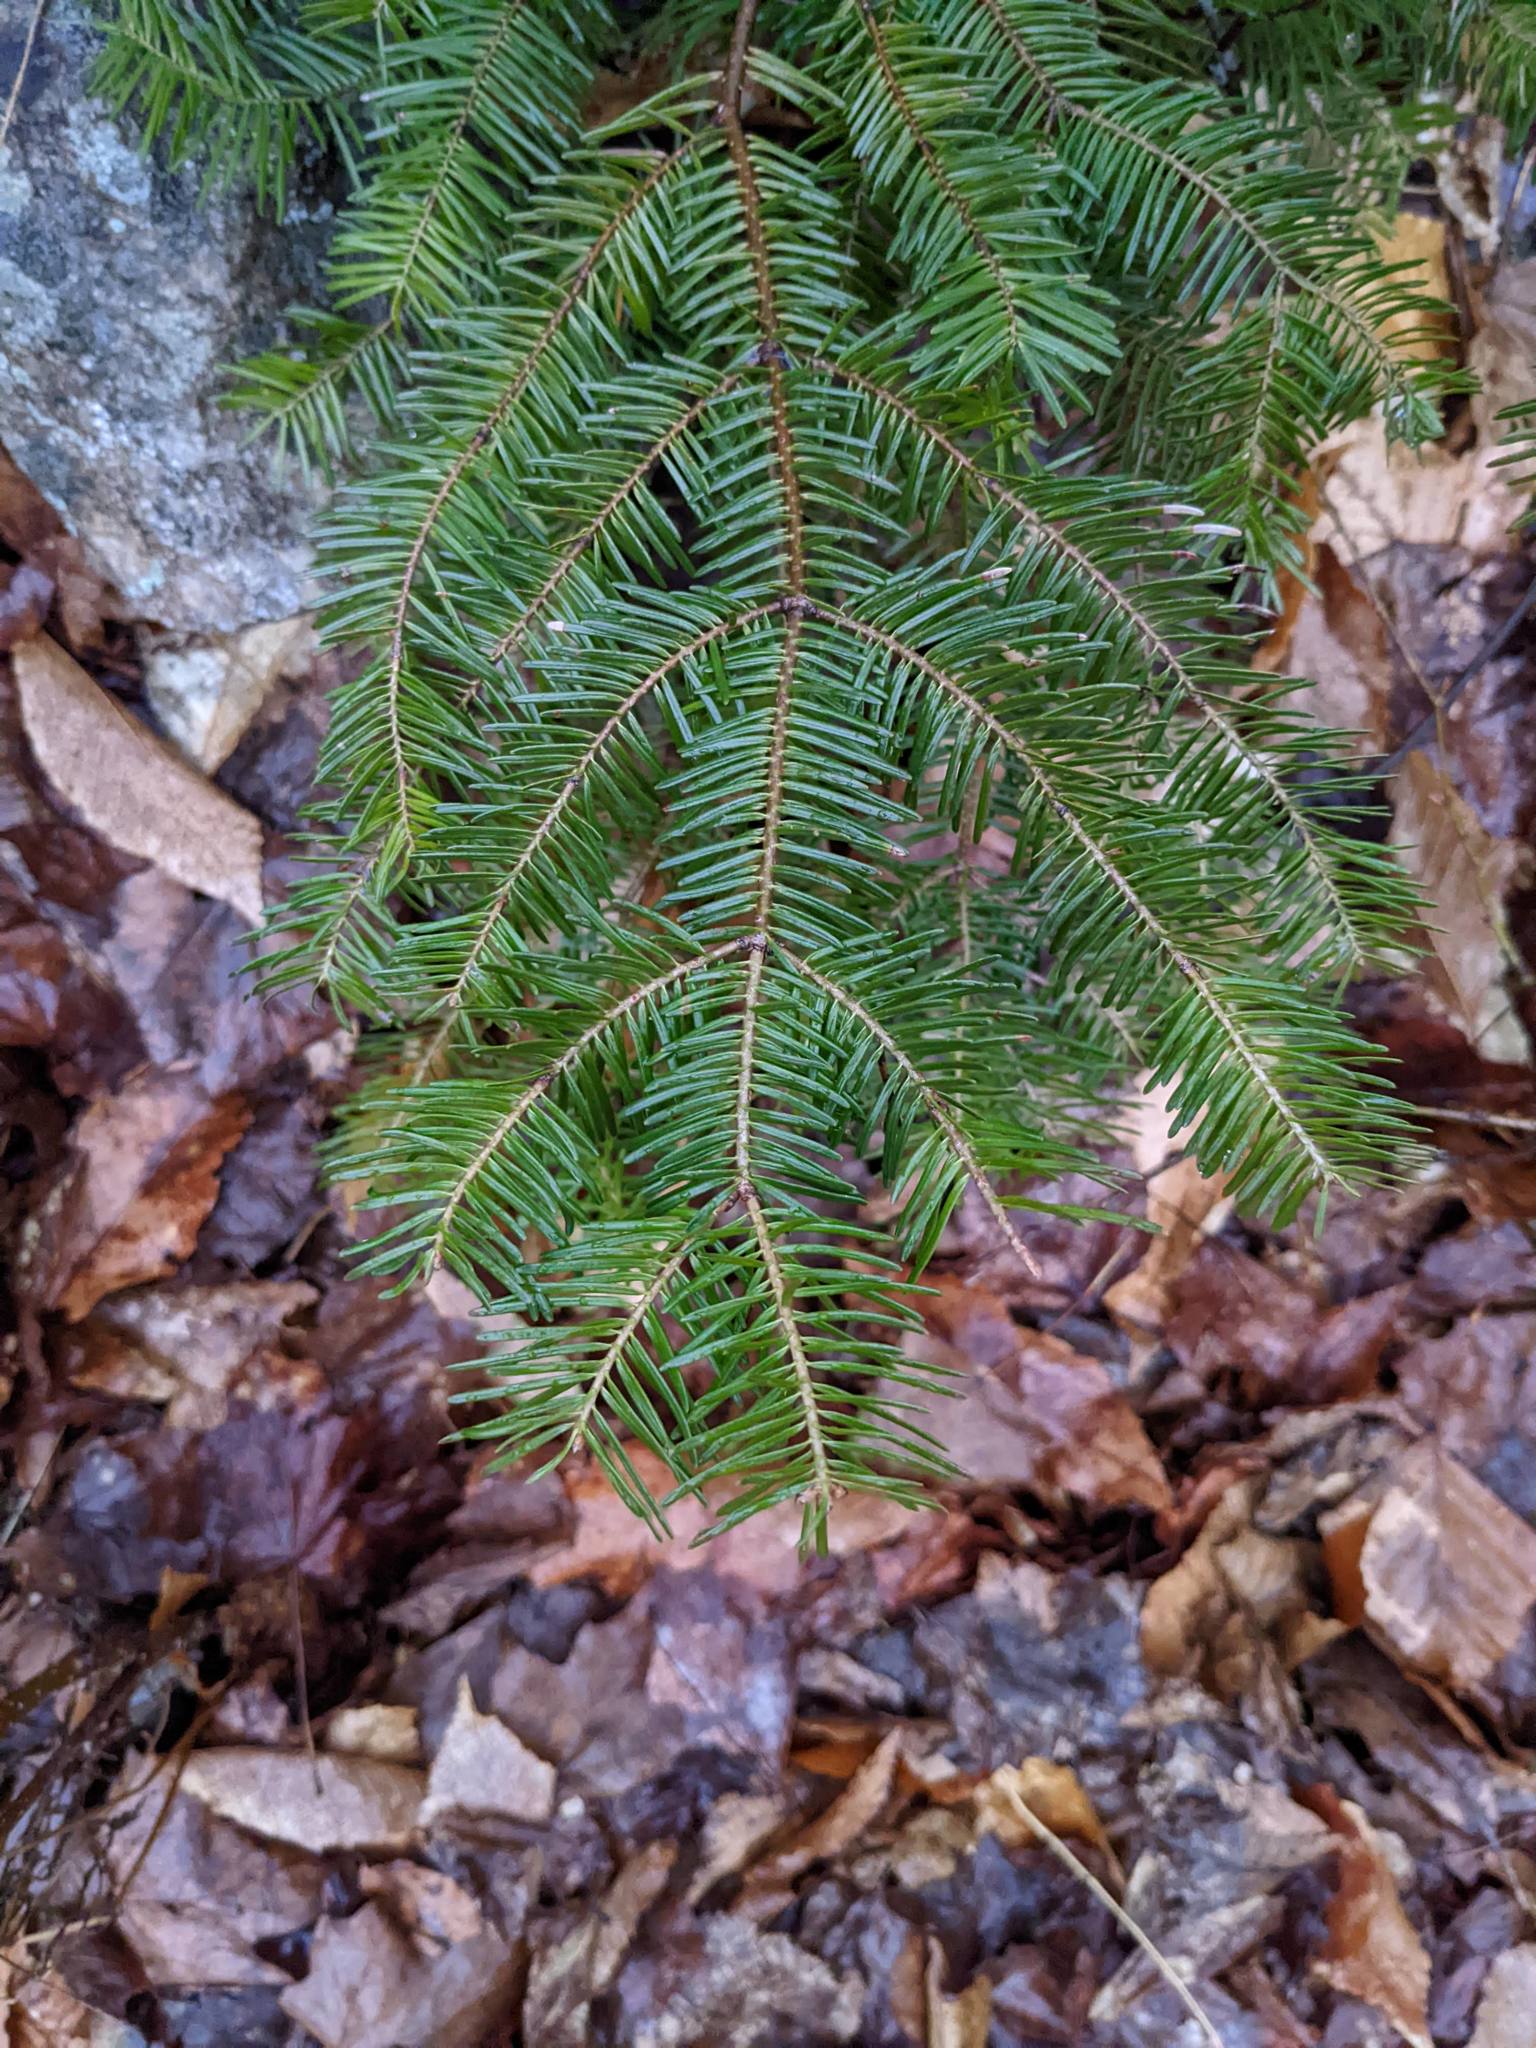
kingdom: Plantae
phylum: Tracheophyta
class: Pinopsida
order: Pinales
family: Pinaceae
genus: Abies
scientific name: Abies balsamea
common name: Balsam fir
